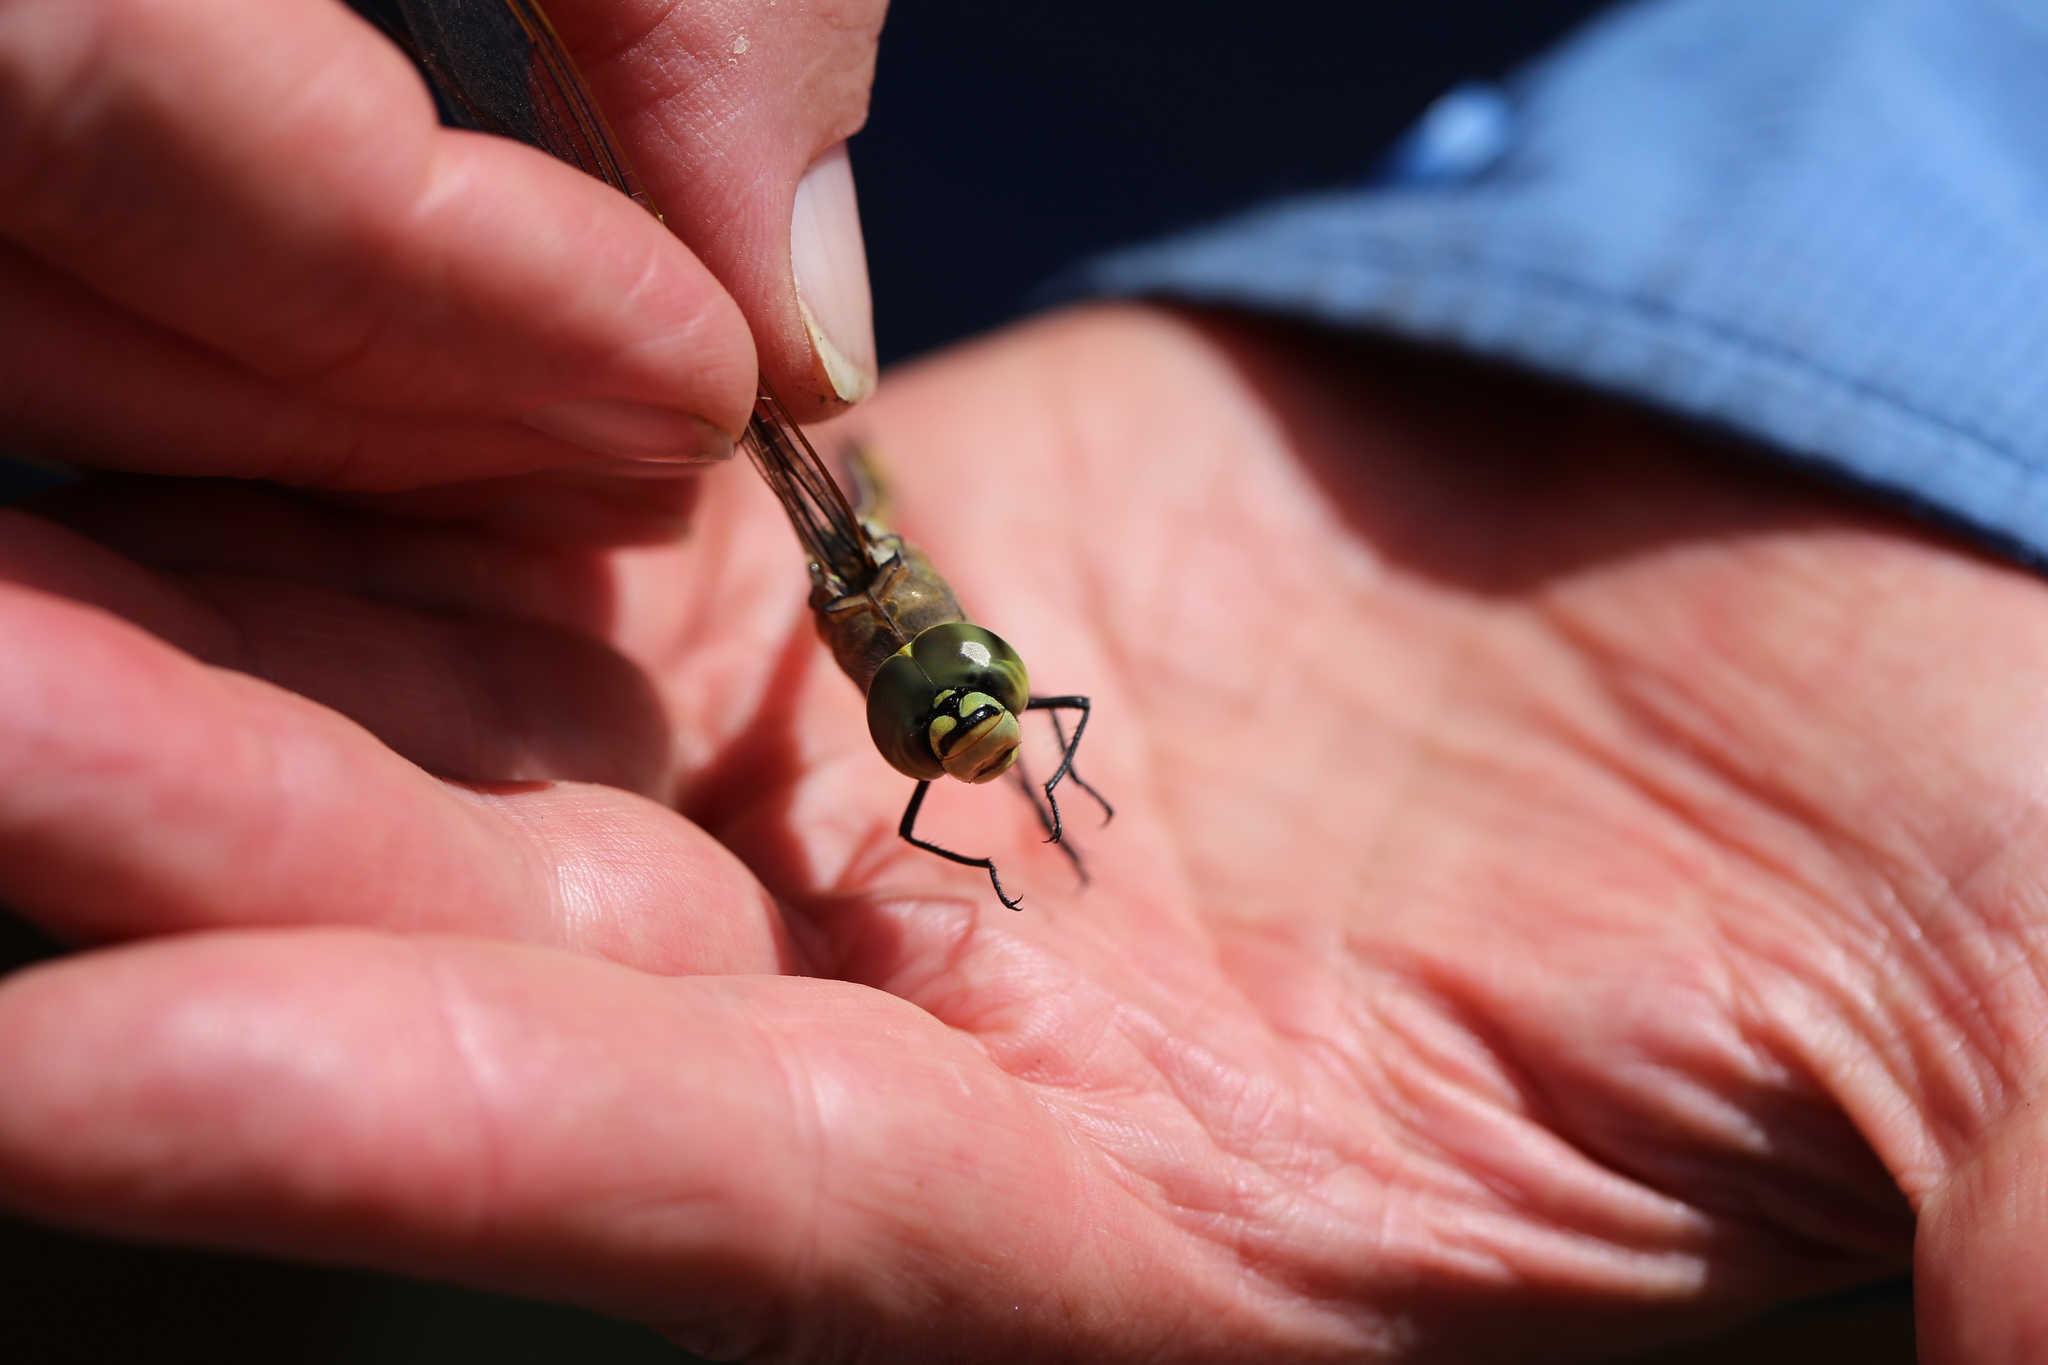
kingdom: Animalia
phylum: Arthropoda
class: Insecta
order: Odonata
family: Aeshnidae
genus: Anax
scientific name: Anax papuensis
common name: Australian emperor
